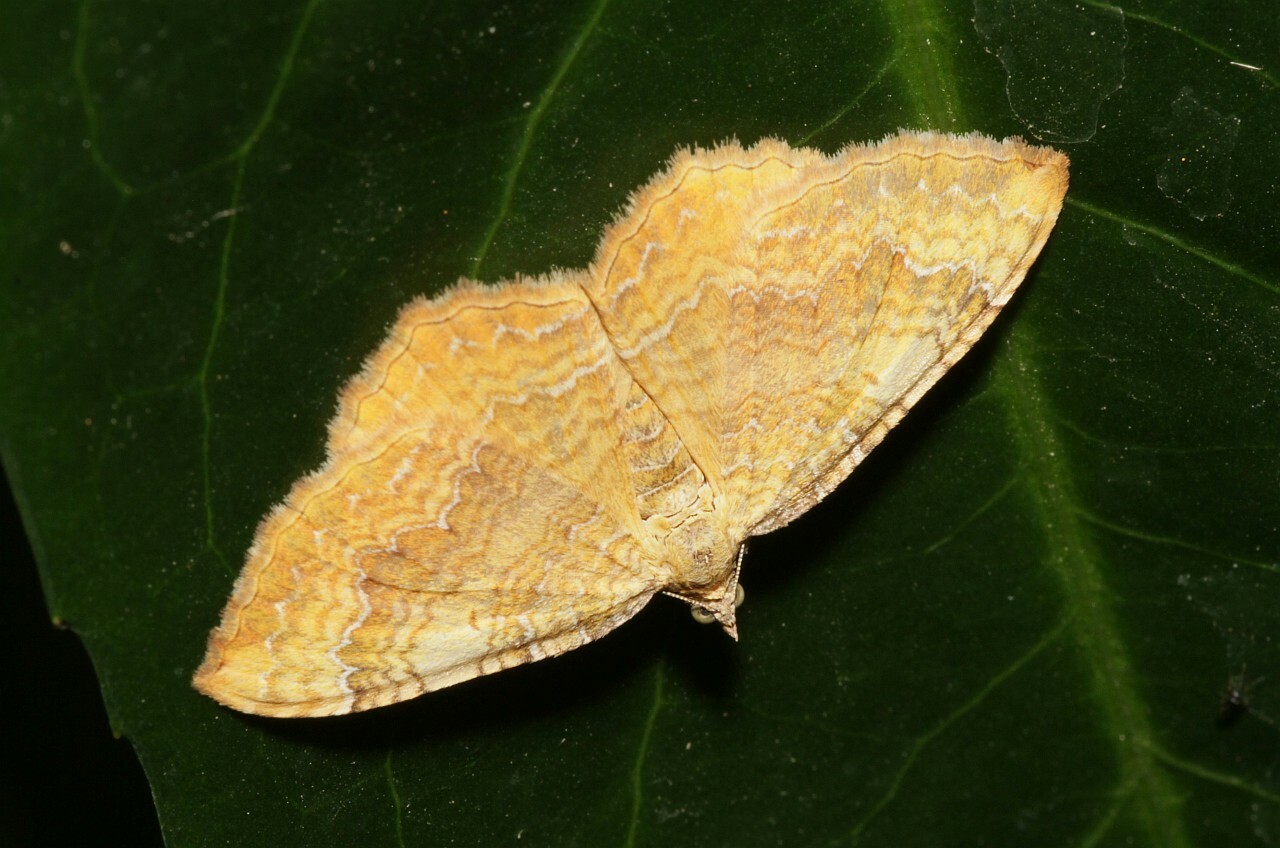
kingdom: Animalia
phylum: Arthropoda
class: Insecta
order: Lepidoptera
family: Geometridae
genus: Camptogramma
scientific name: Camptogramma bilineata
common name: Yellow shell
